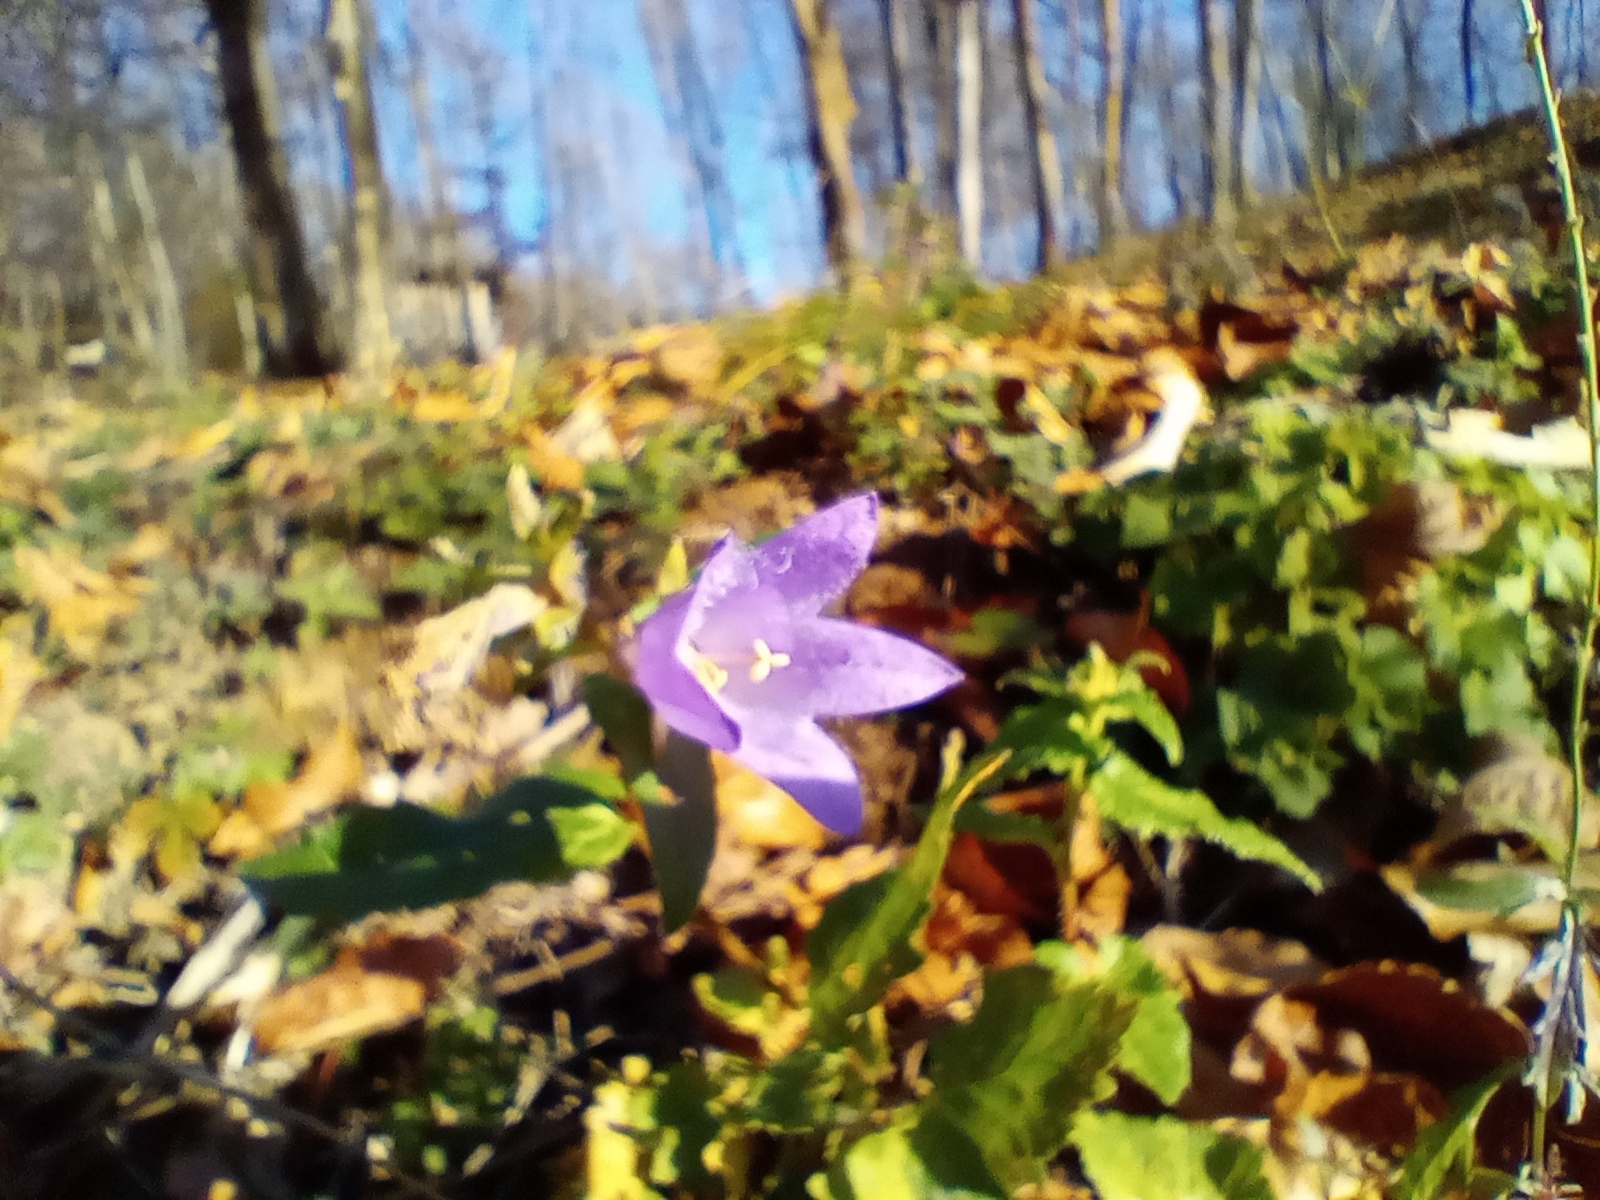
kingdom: Plantae
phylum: Tracheophyta
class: Magnoliopsida
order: Asterales
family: Campanulaceae
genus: Campanula
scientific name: Campanula trachelium
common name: Nettle-leaved bellflower
